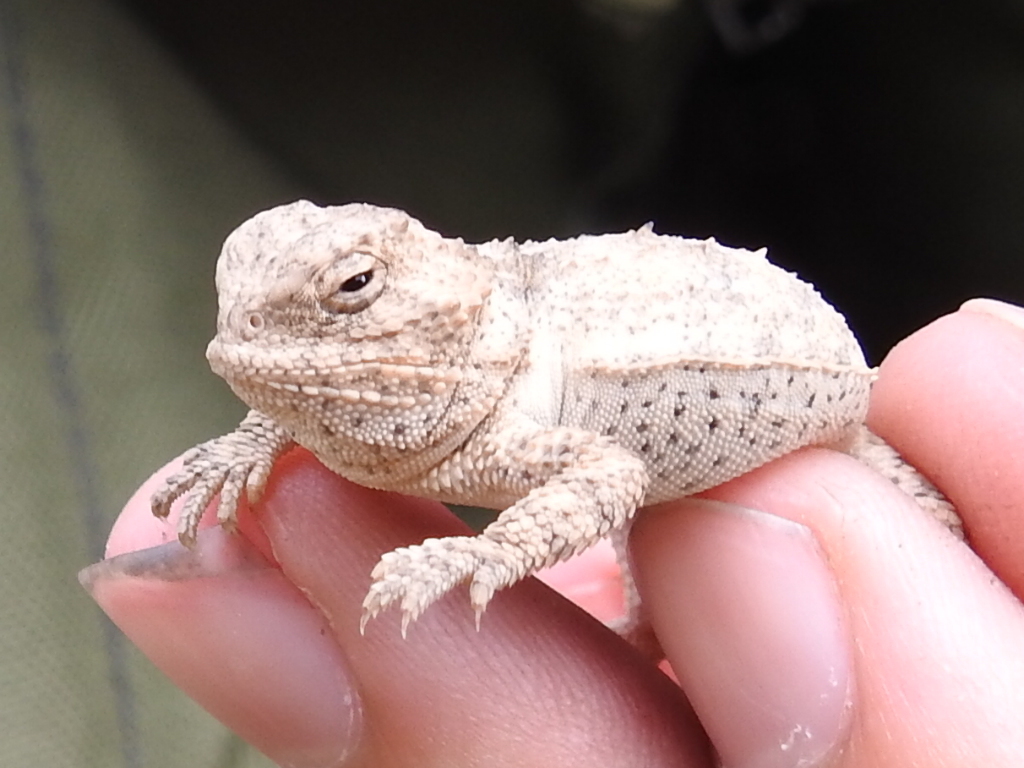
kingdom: Animalia
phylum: Chordata
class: Squamata
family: Phrynosomatidae
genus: Phrynosoma
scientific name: Phrynosoma hernandesi
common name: Greater short-horned lizard
